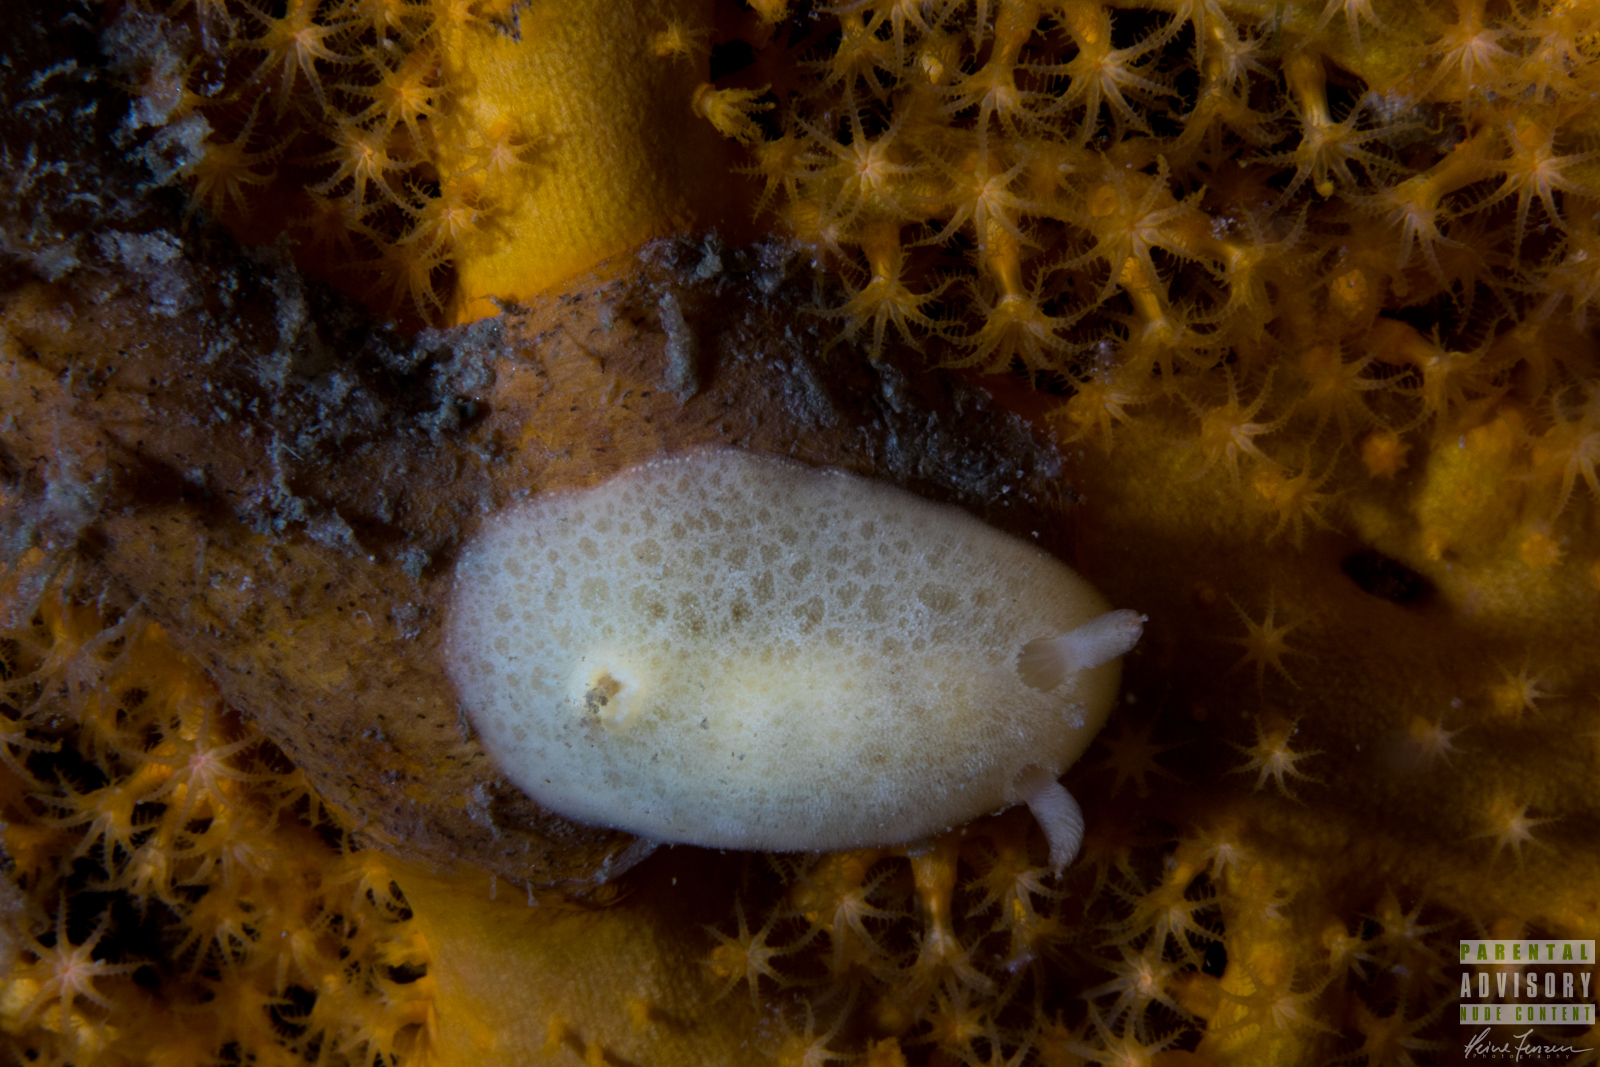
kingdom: Animalia
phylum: Mollusca
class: Gastropoda
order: Nudibranchia
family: Discodorididae
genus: Jorunna
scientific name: Jorunna tomentosa
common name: Grey sea slug
